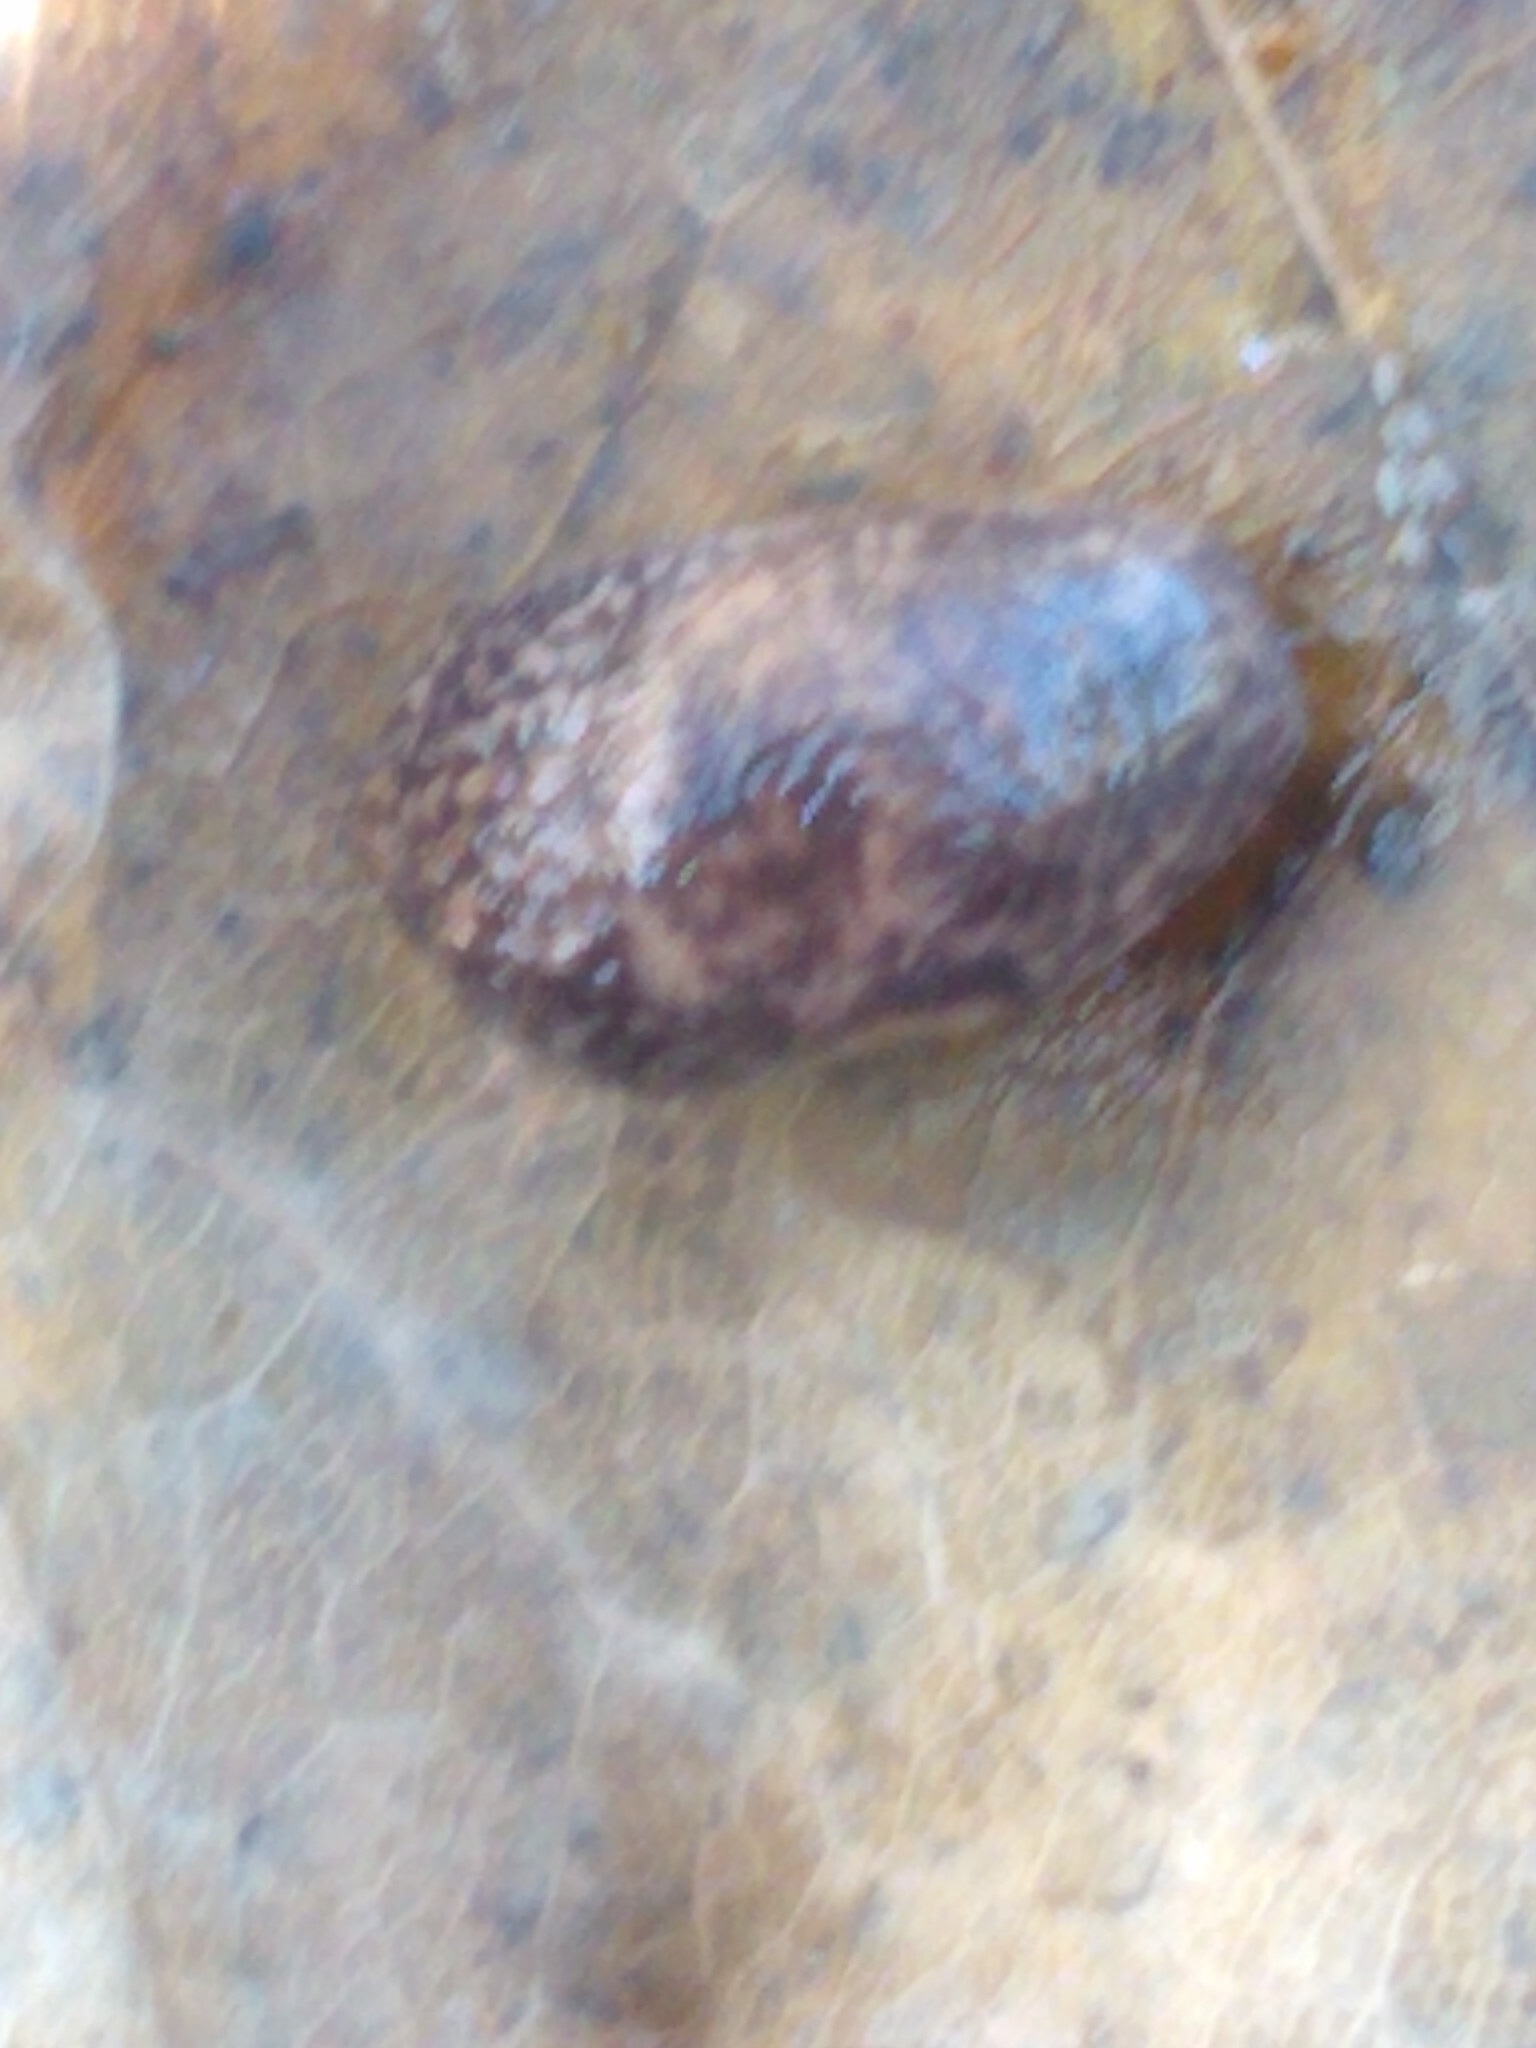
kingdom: Animalia
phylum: Mollusca
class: Gastropoda
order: Stylommatophora
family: Agriolimacidae
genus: Deroceras
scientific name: Deroceras reticulatum
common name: Gray field slug
